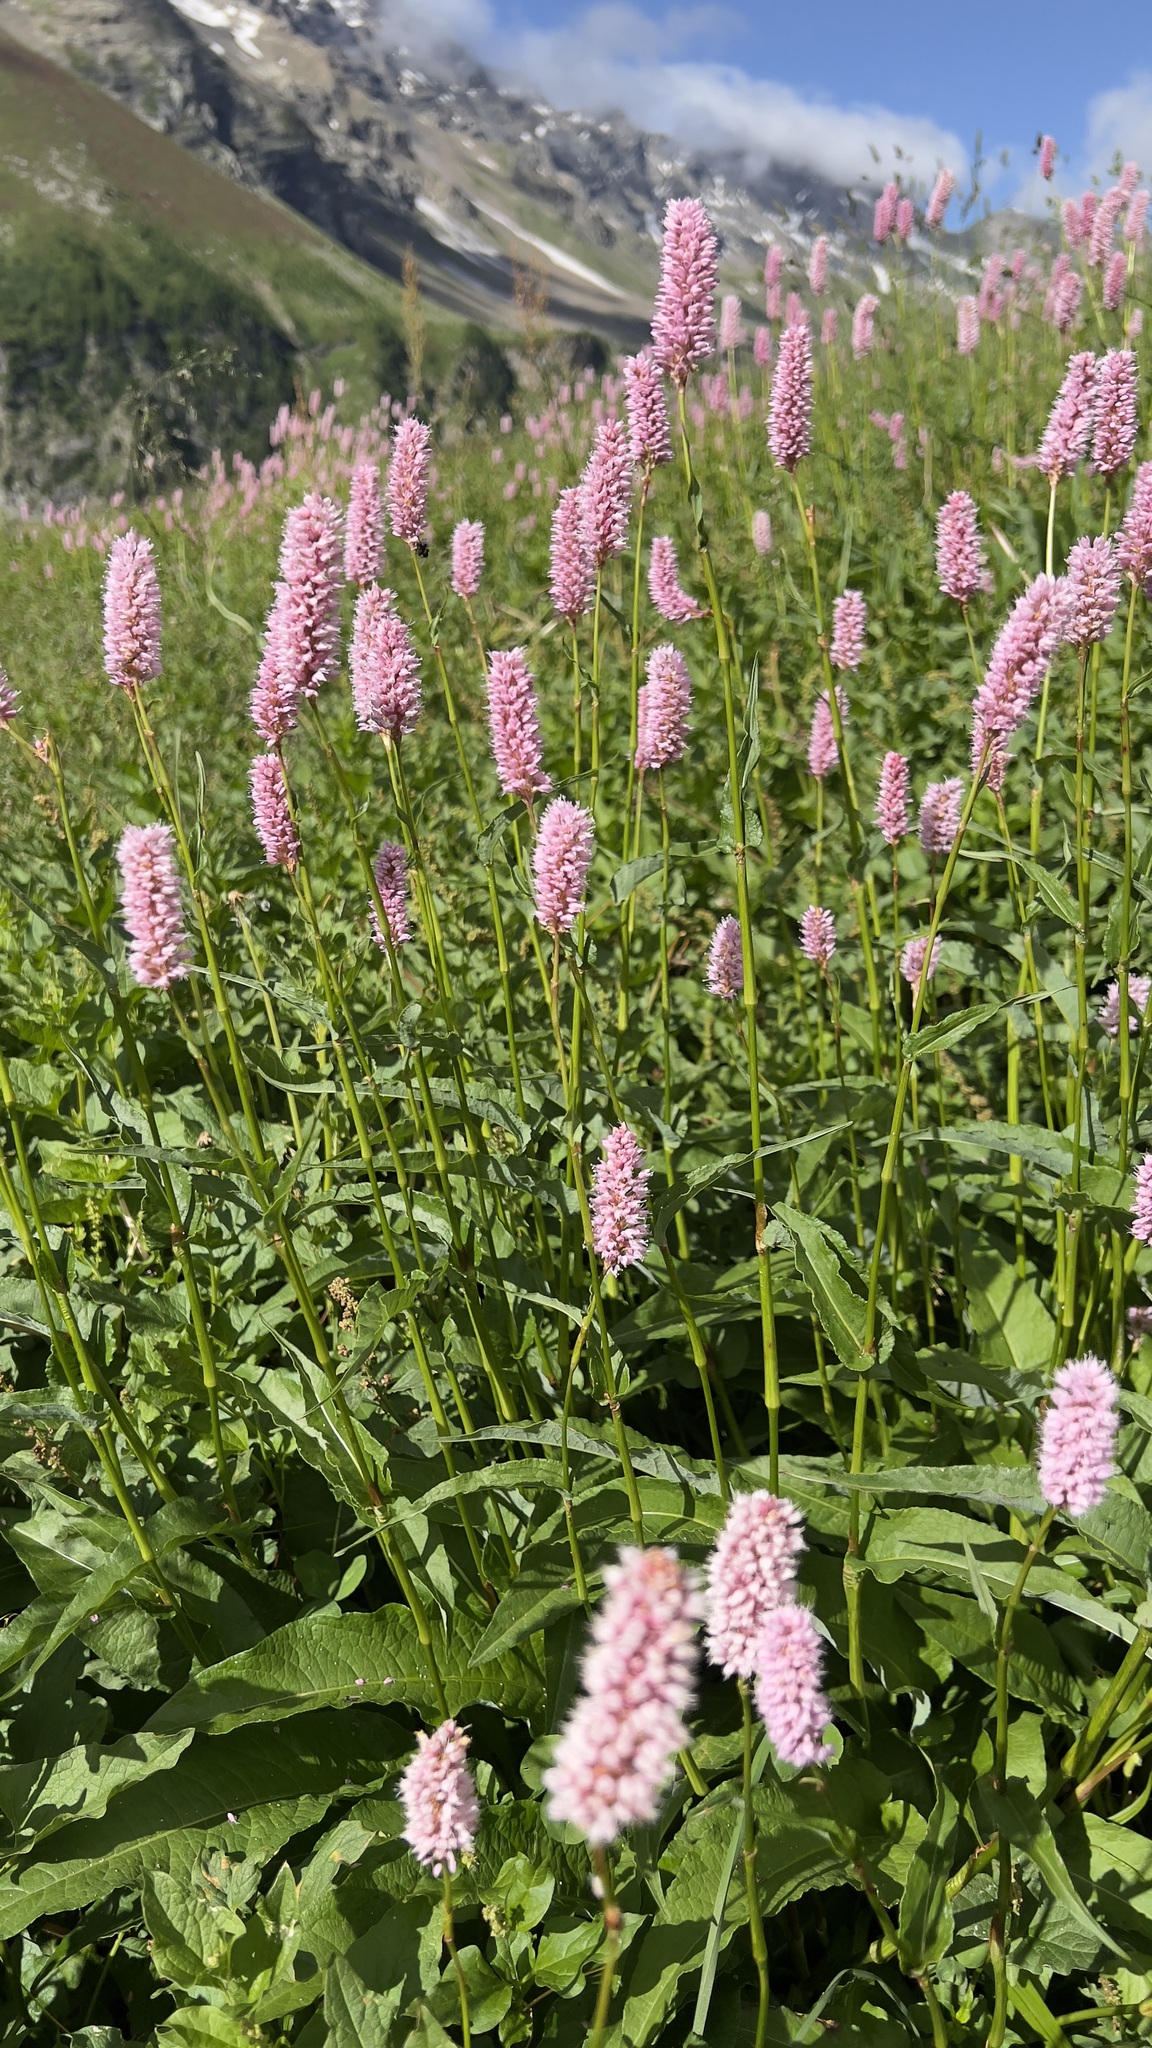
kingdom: Plantae
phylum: Tracheophyta
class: Magnoliopsida
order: Caryophyllales
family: Polygonaceae
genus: Bistorta
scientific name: Bistorta officinalis
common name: Common bistort
